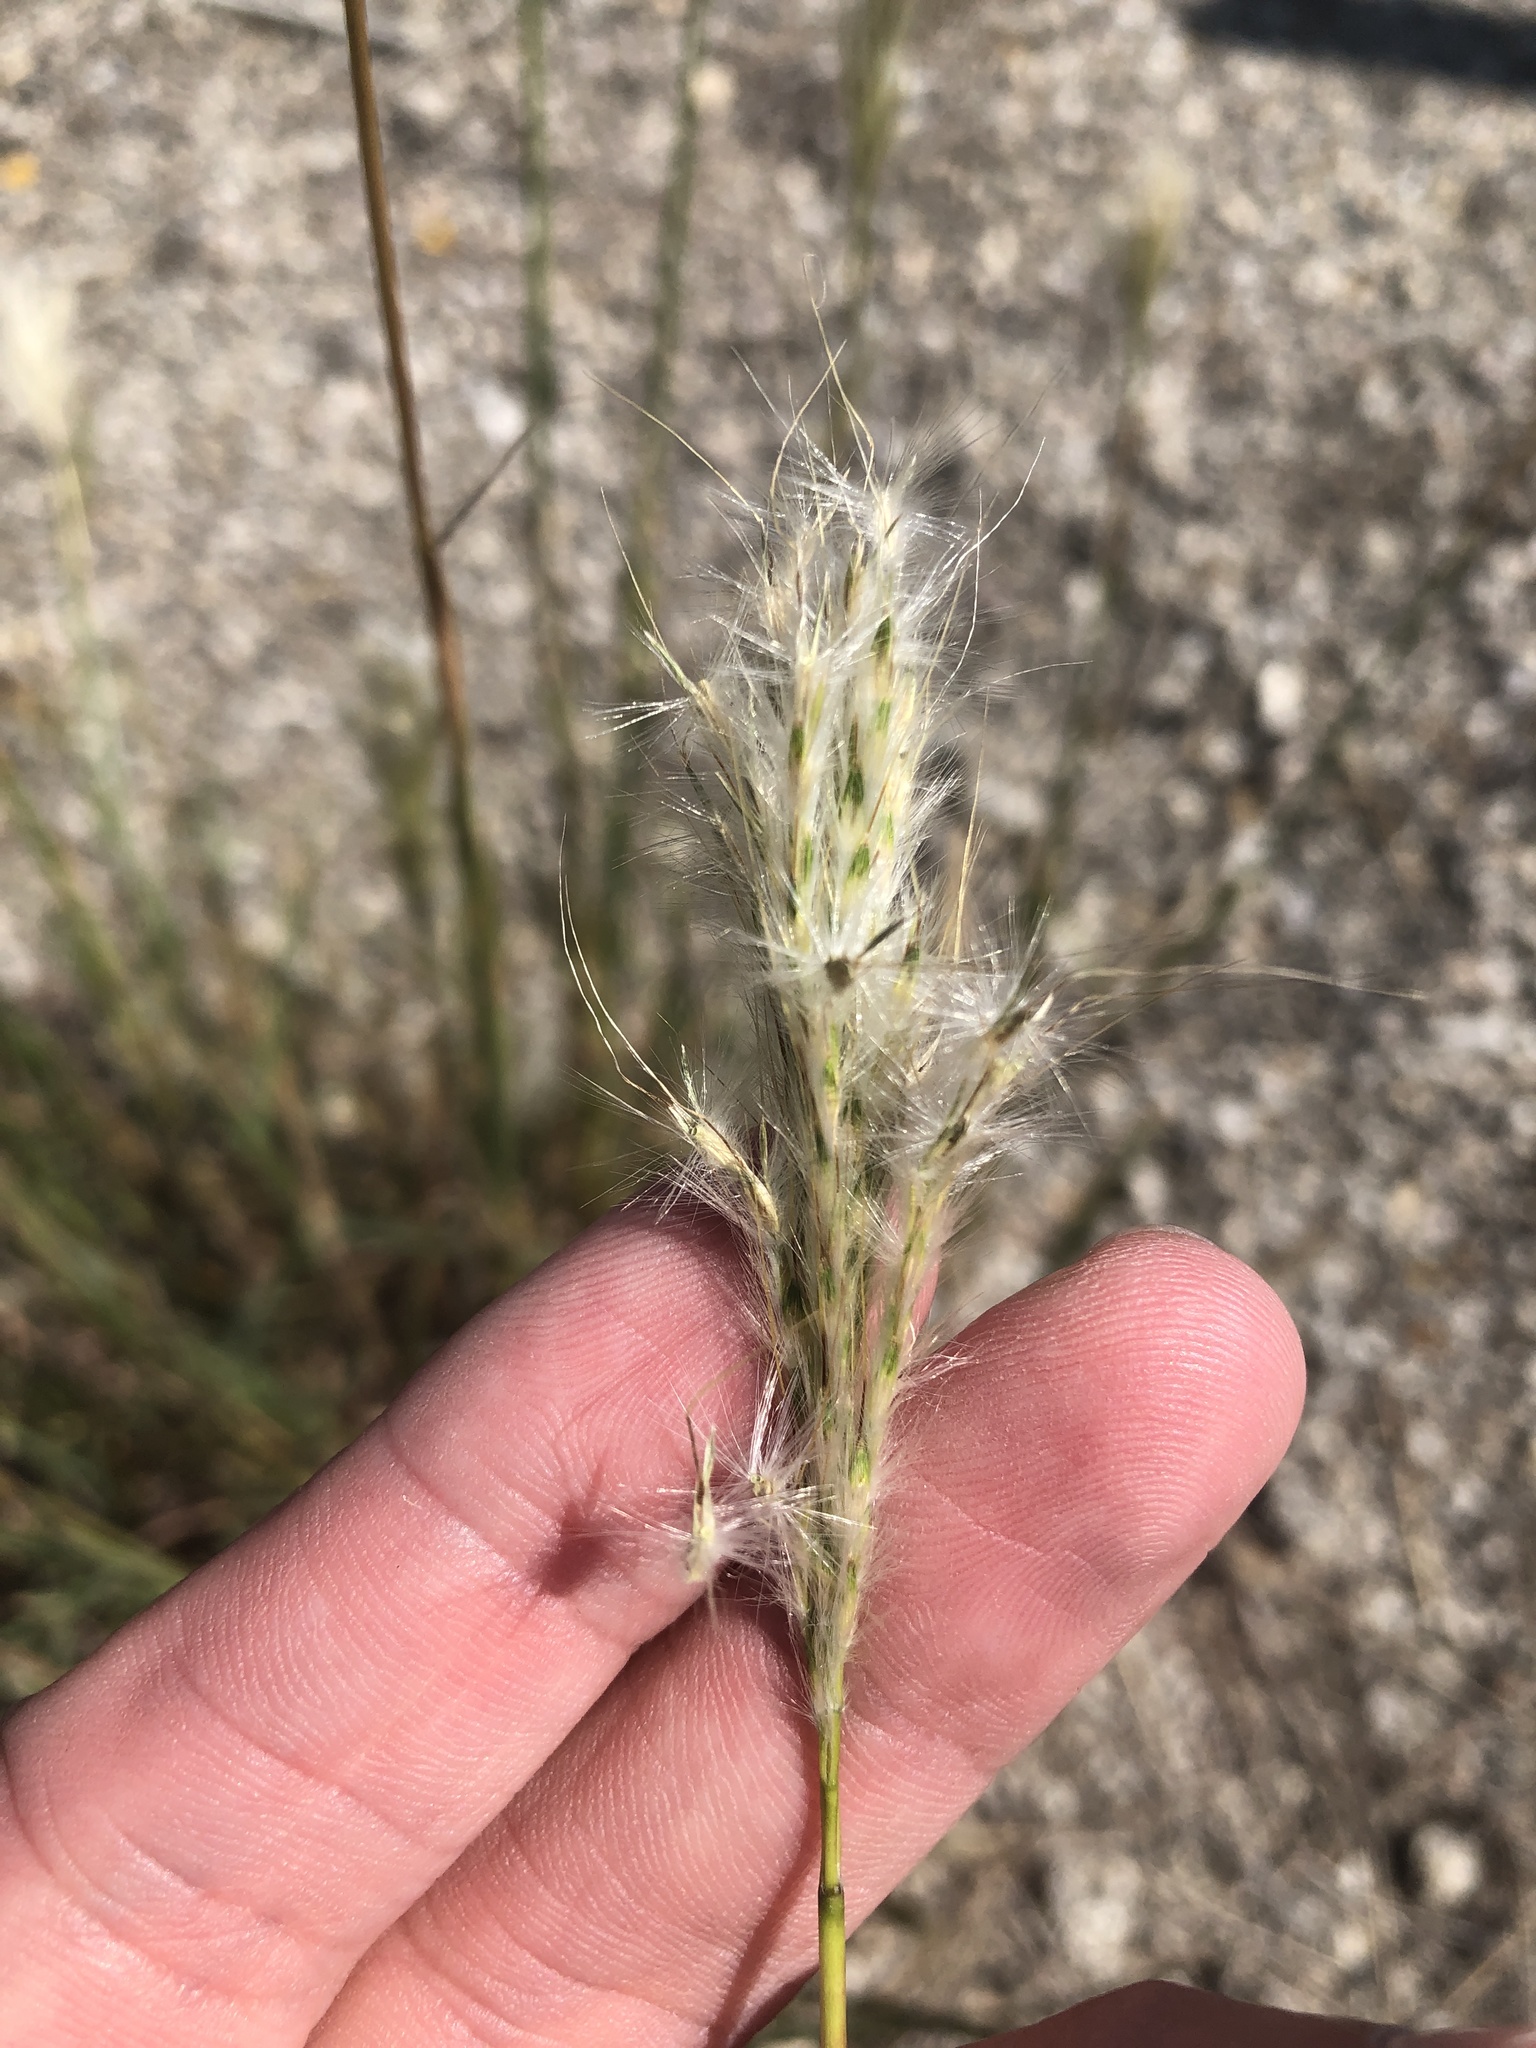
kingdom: Plantae
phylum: Tracheophyta
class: Liliopsida
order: Poales
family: Poaceae
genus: Bothriochloa
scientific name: Bothriochloa torreyana
